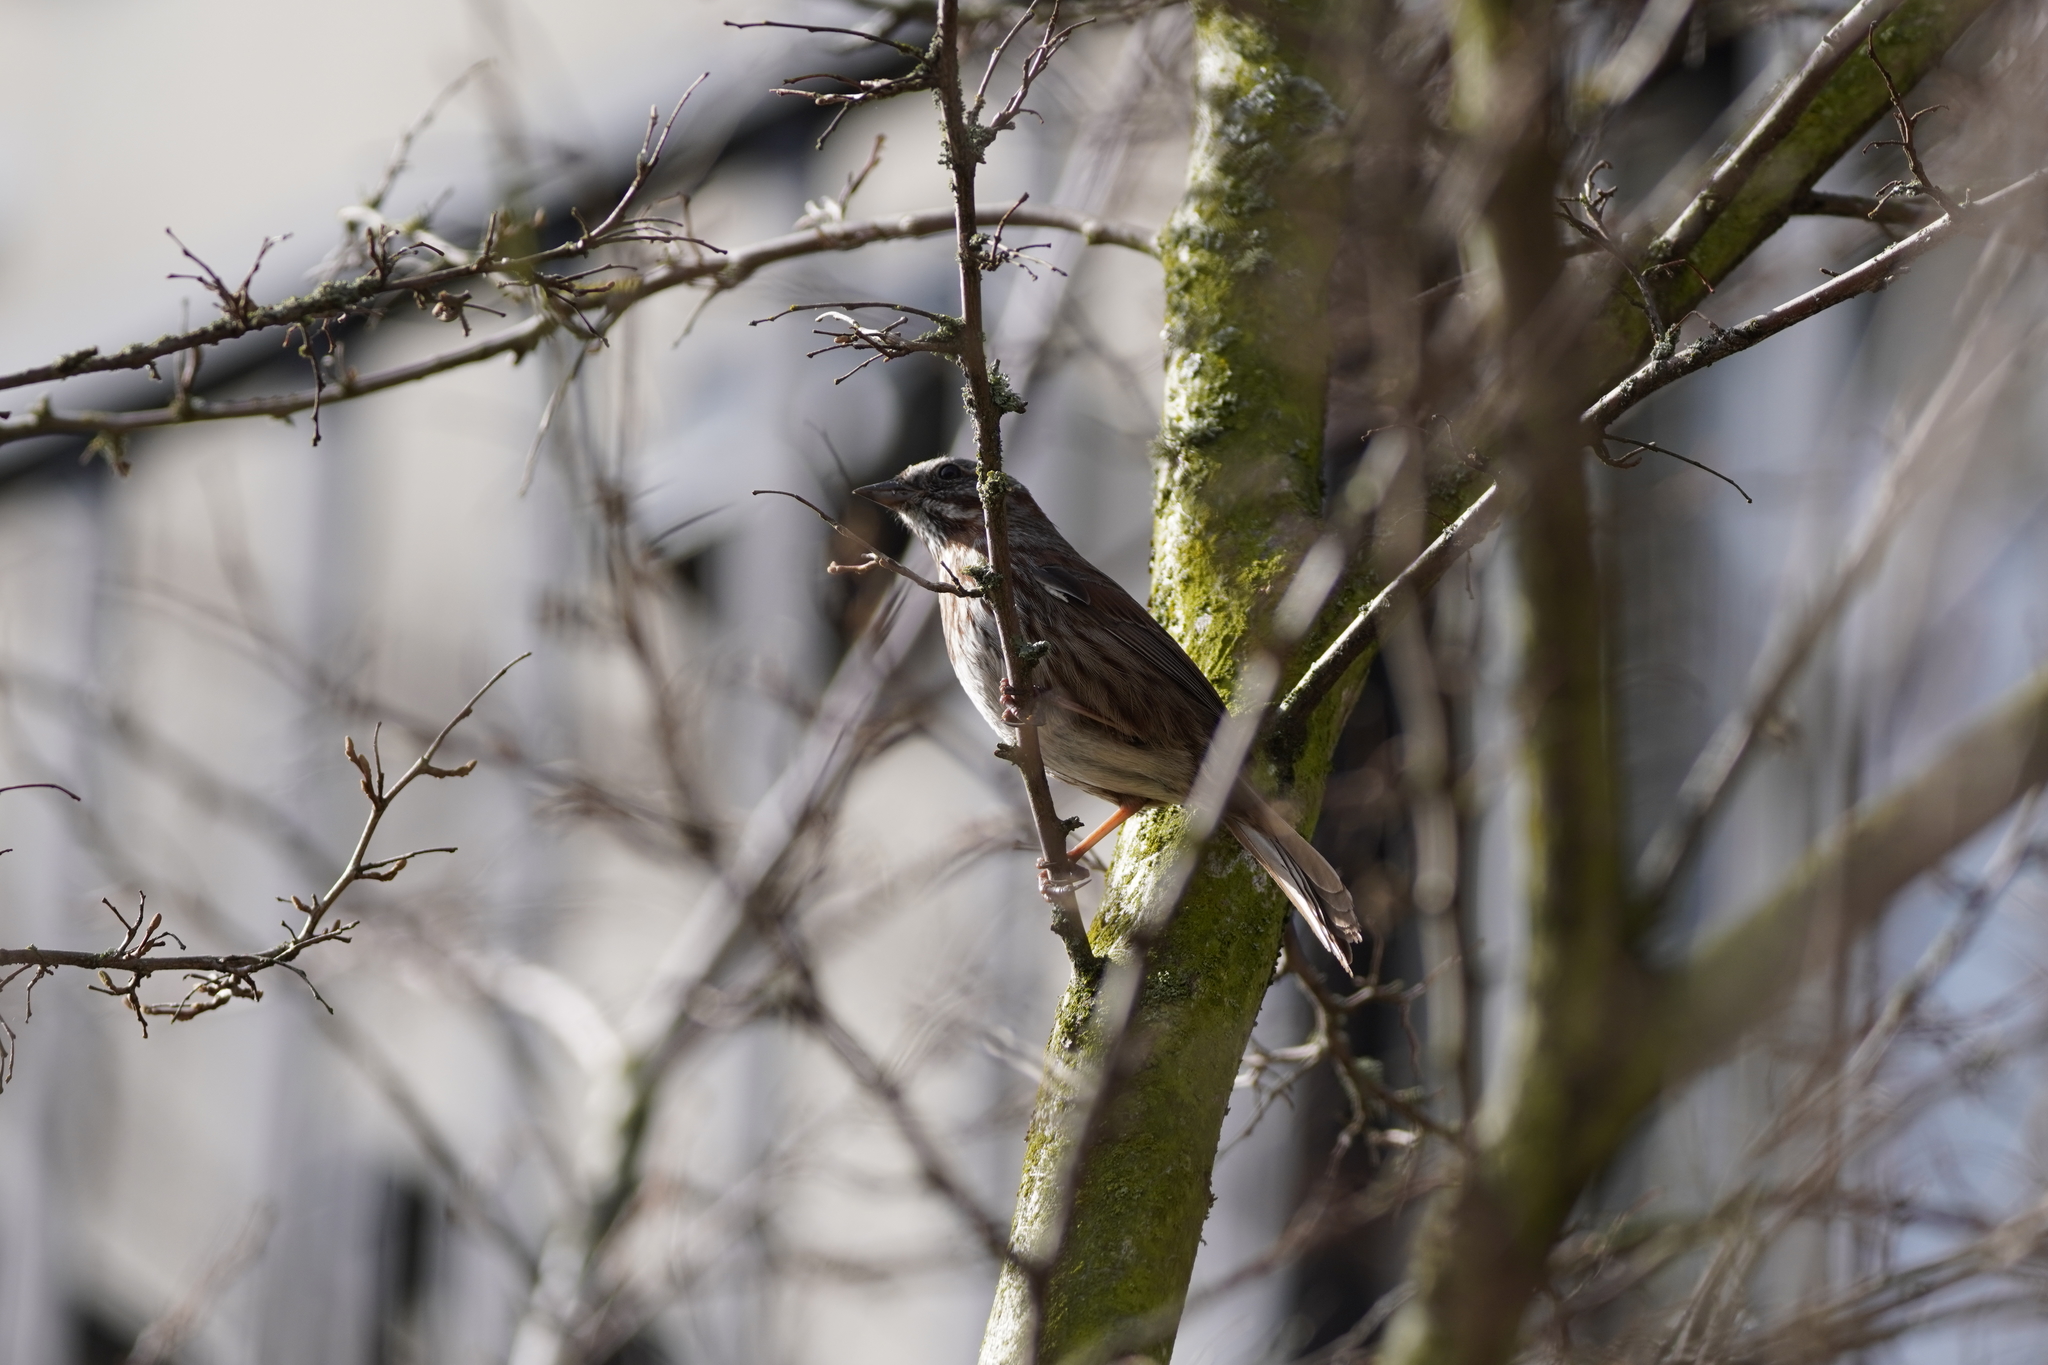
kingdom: Animalia
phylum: Chordata
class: Aves
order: Passeriformes
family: Passerellidae
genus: Melospiza
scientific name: Melospiza melodia
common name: Song sparrow
